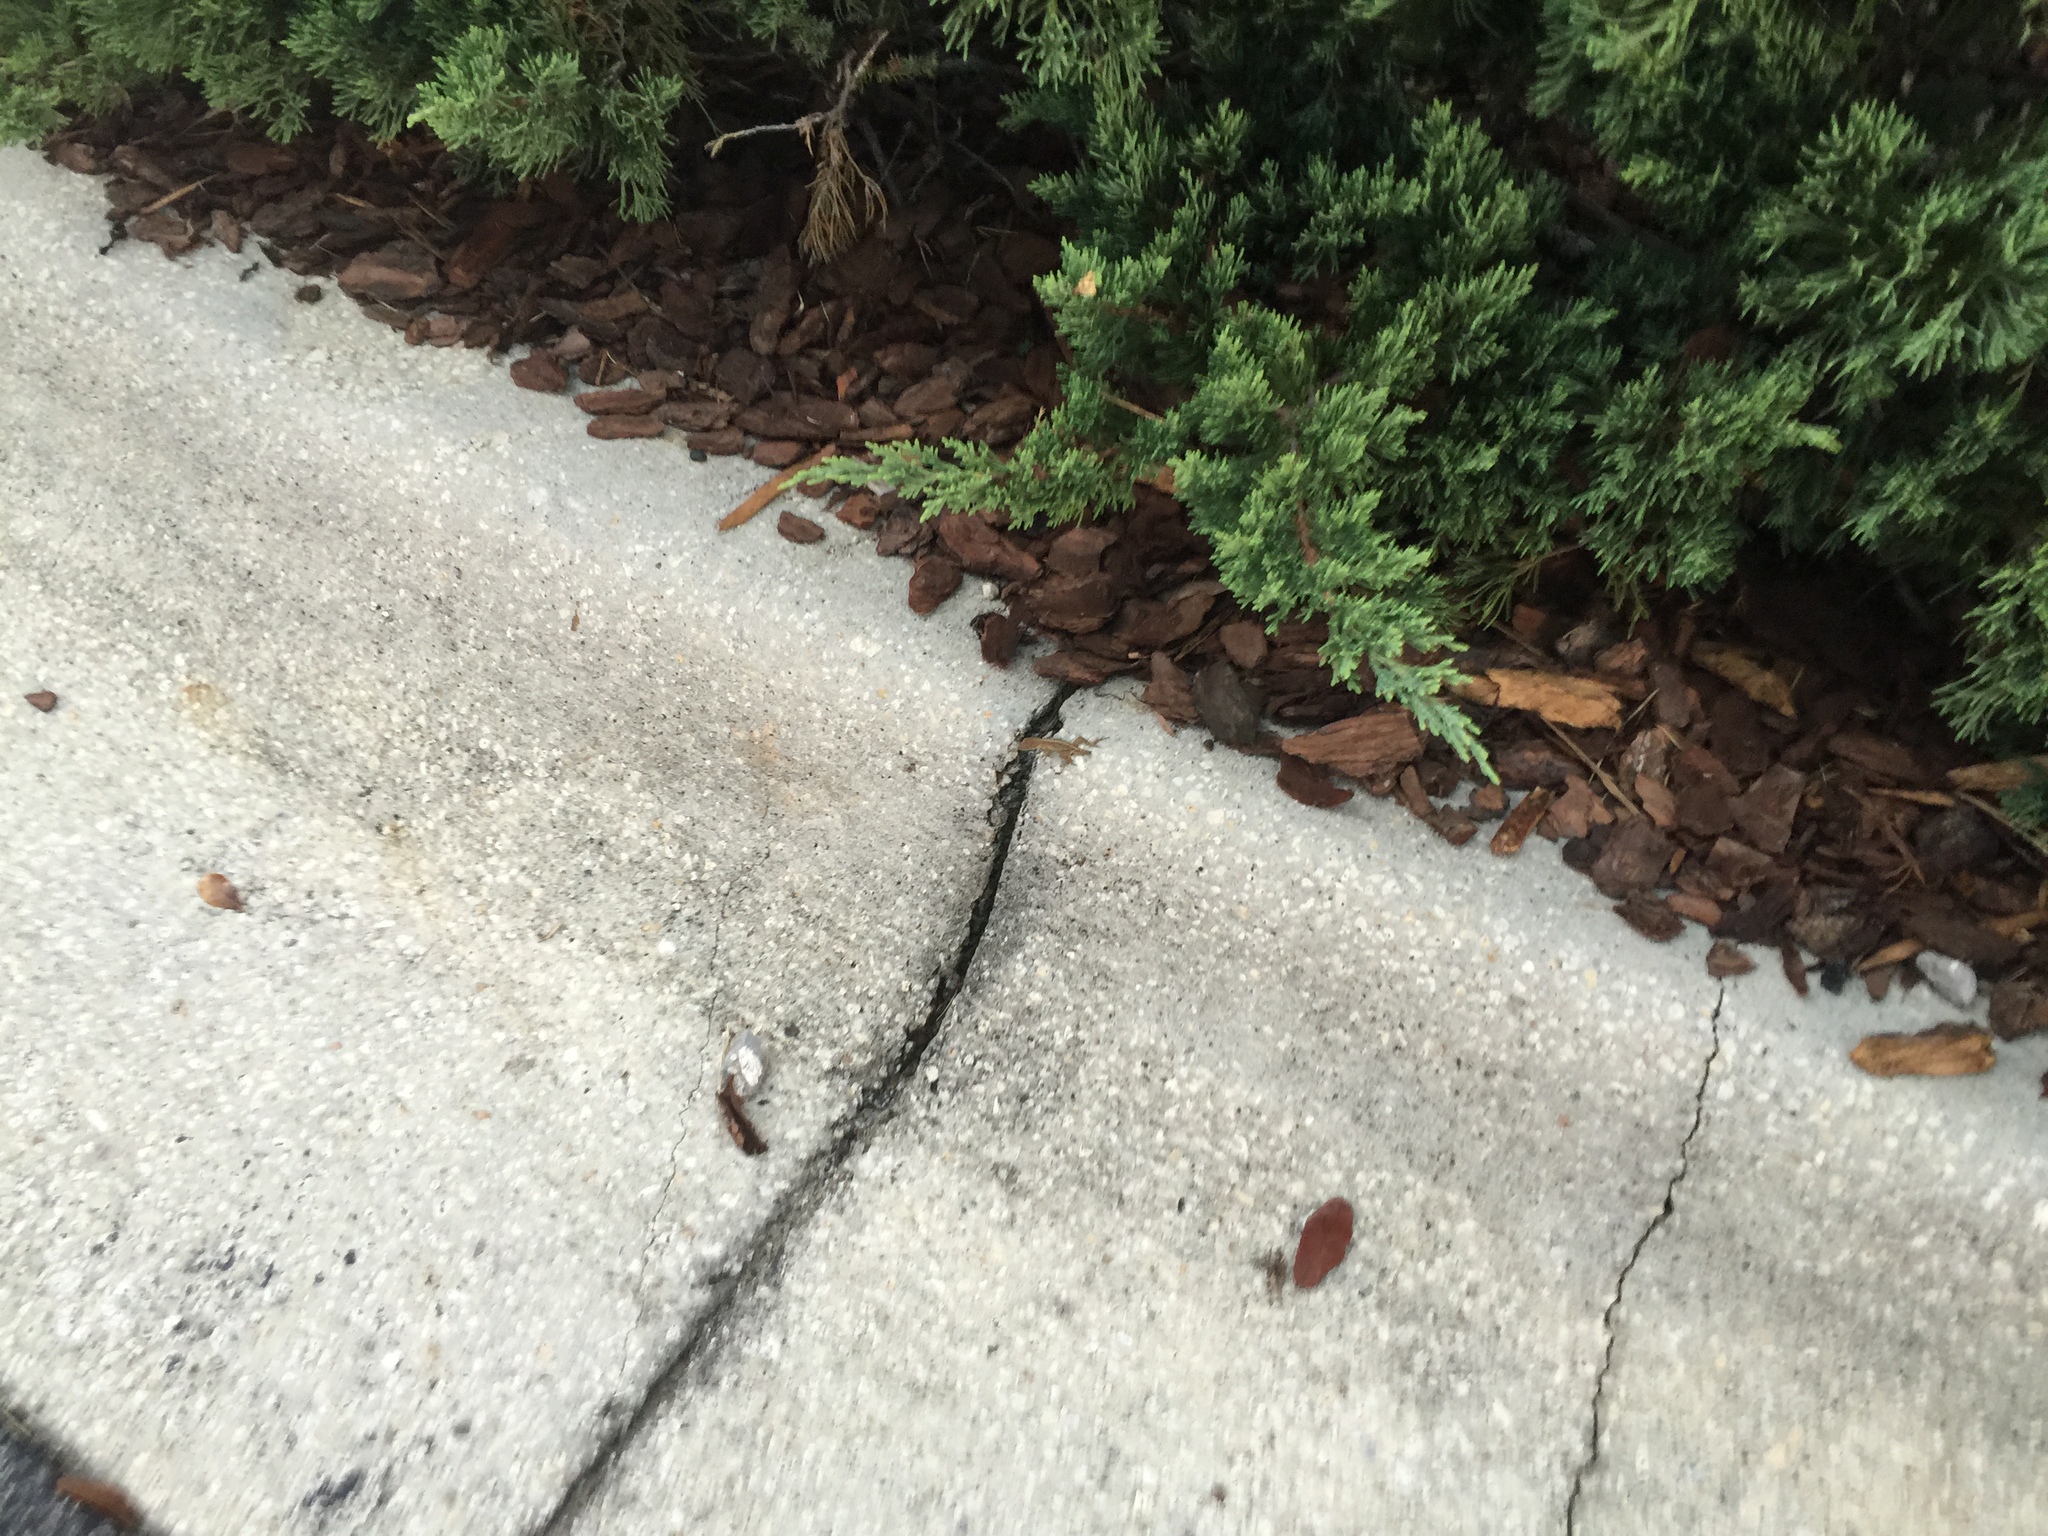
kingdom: Animalia
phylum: Chordata
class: Squamata
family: Dactyloidae
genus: Anolis
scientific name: Anolis sagrei
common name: Brown anole
